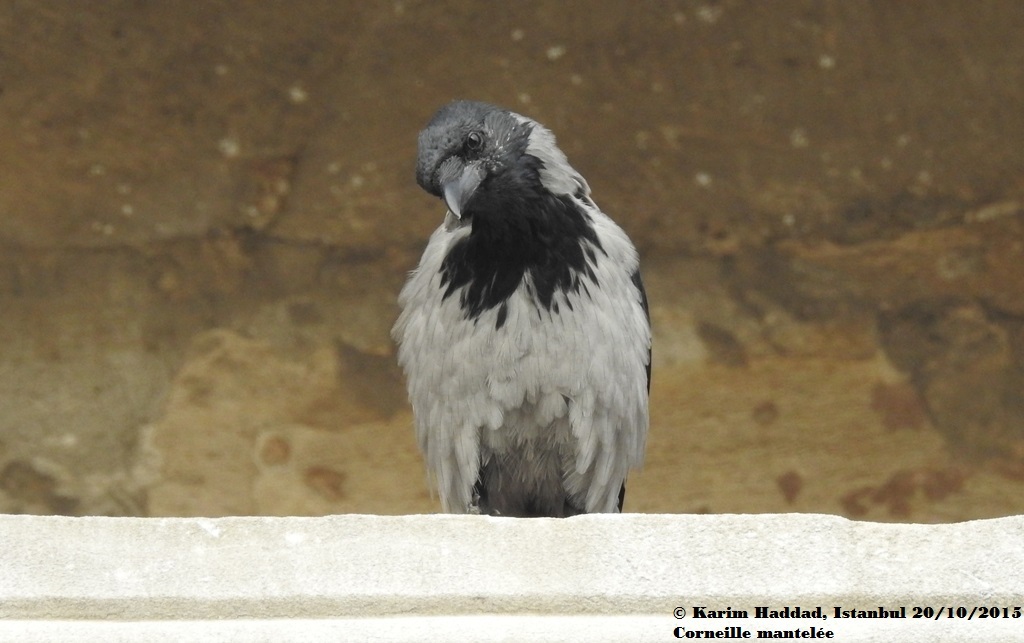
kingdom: Animalia
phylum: Chordata
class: Aves
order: Passeriformes
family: Corvidae
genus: Corvus
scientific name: Corvus cornix
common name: Hooded crow
